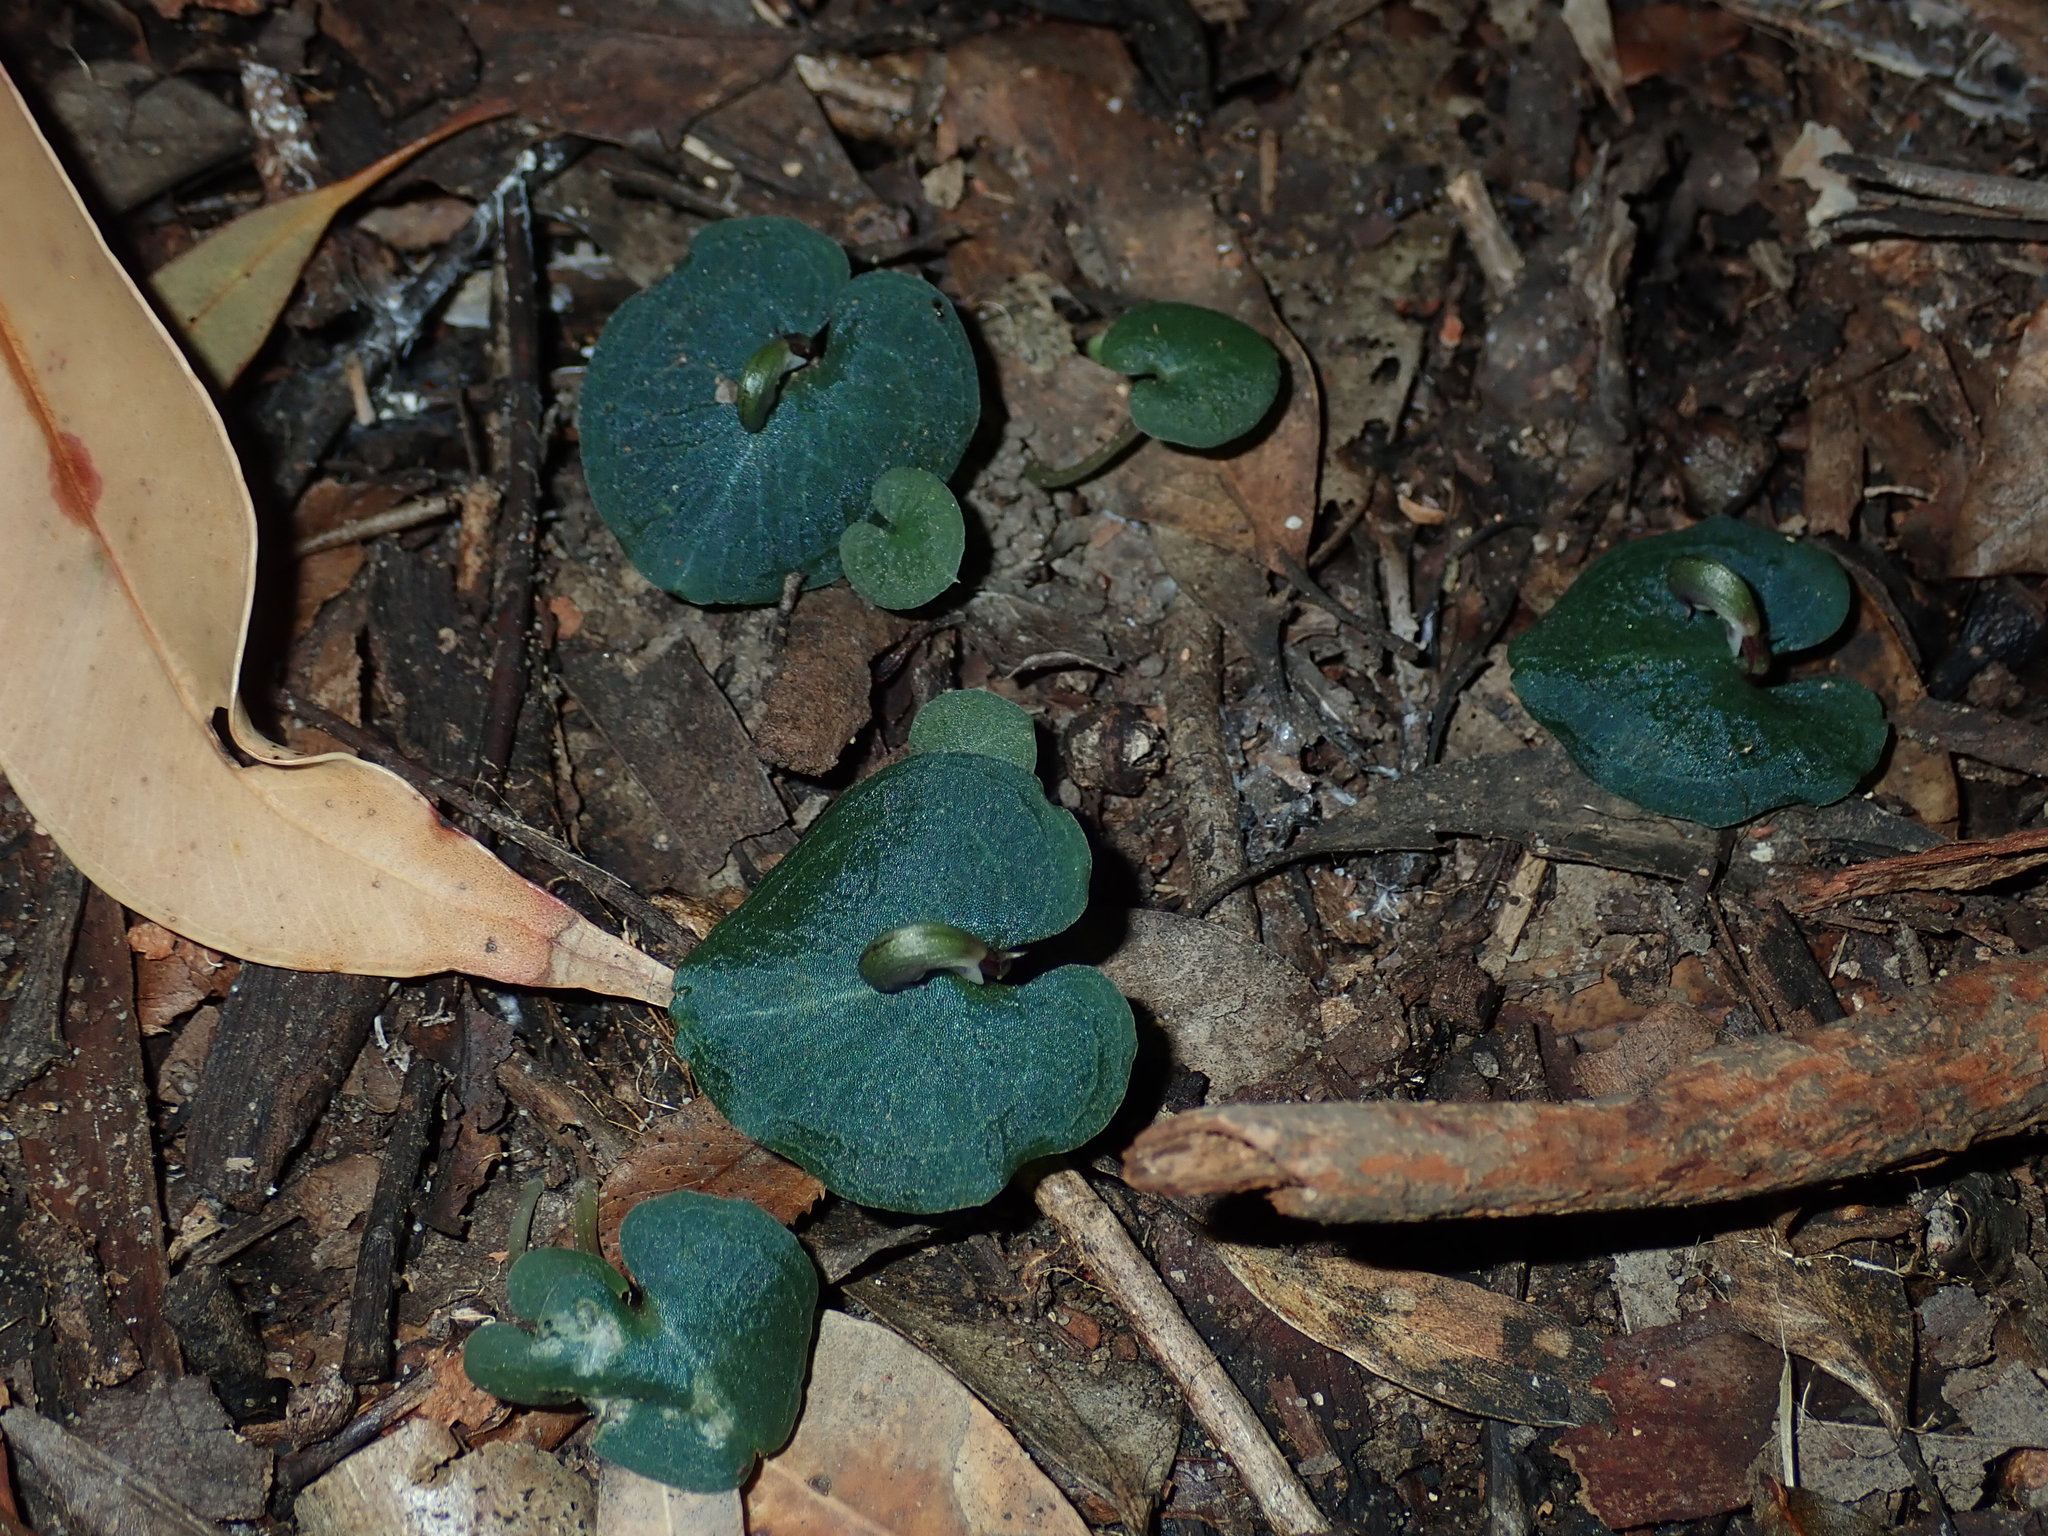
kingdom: Plantae
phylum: Tracheophyta
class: Liliopsida
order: Asparagales
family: Orchidaceae
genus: Corybas
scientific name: Corybas aconitiflorus
